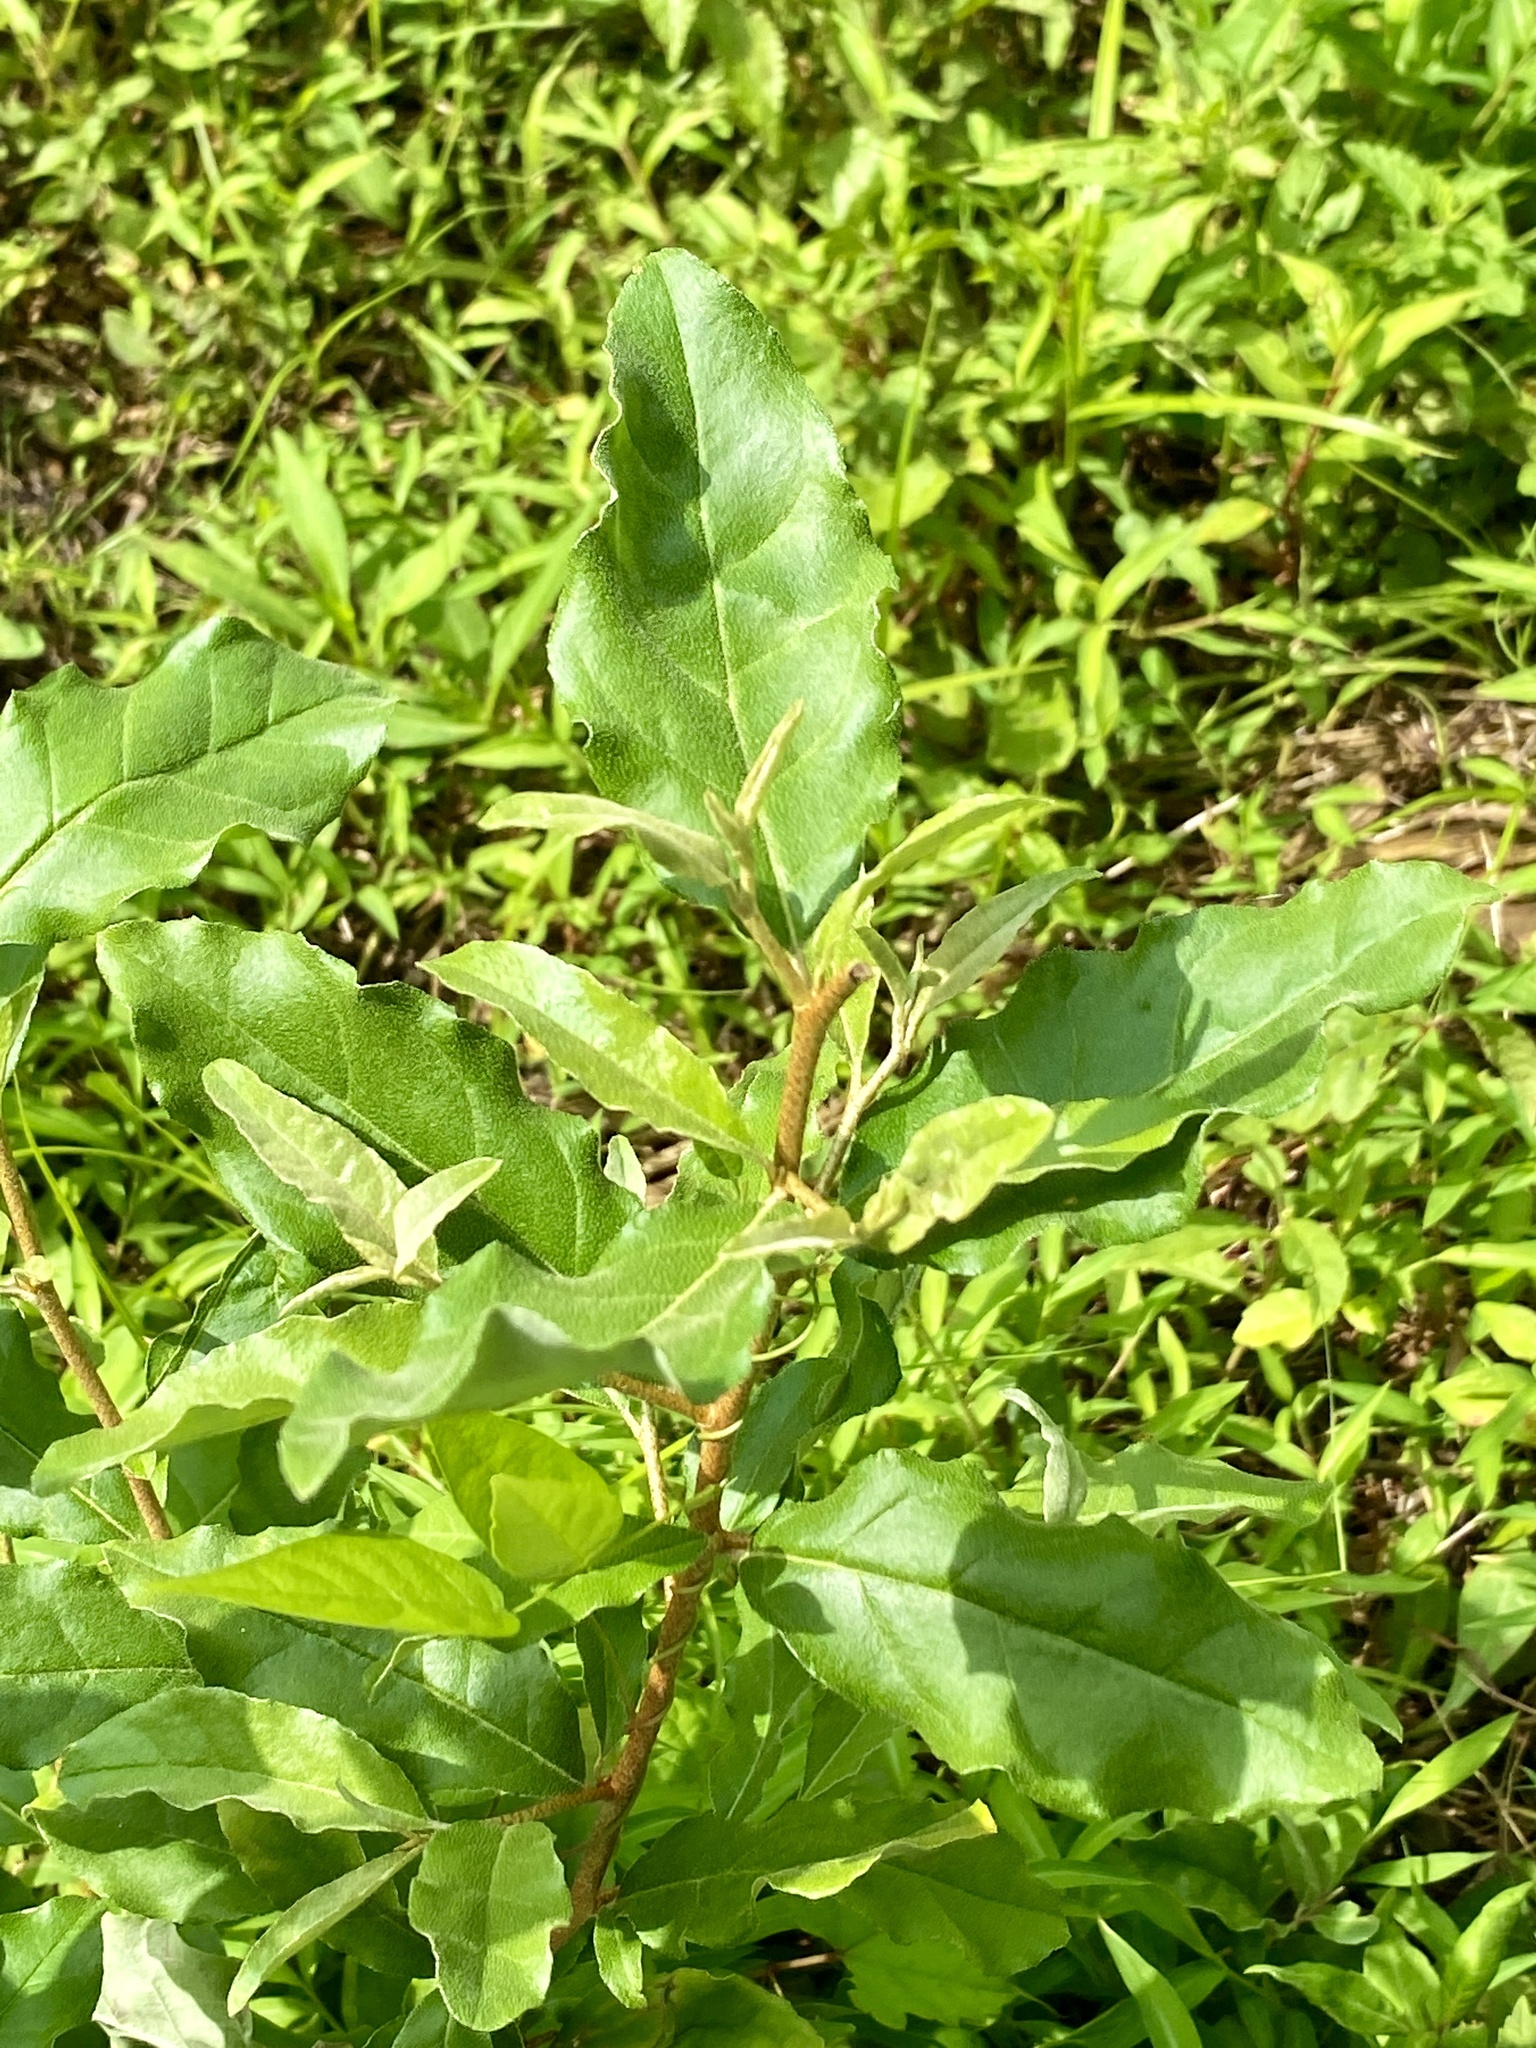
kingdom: Plantae
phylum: Tracheophyta
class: Magnoliopsida
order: Rosales
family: Elaeagnaceae
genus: Elaeagnus
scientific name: Elaeagnus umbellata
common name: Autumn olive
